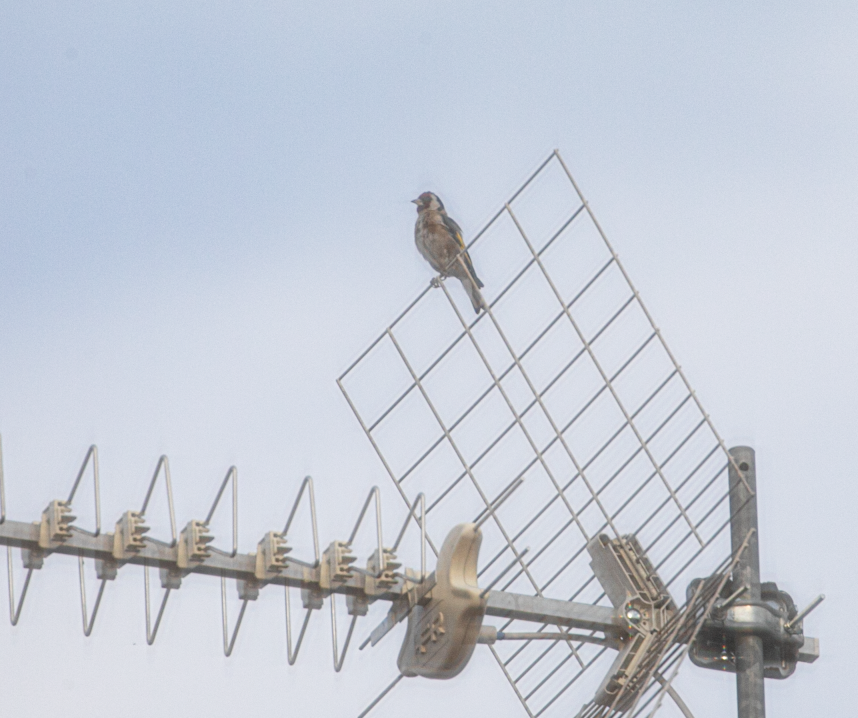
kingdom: Animalia
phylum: Chordata
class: Aves
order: Passeriformes
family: Fringillidae
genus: Carduelis
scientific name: Carduelis carduelis
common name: European goldfinch
